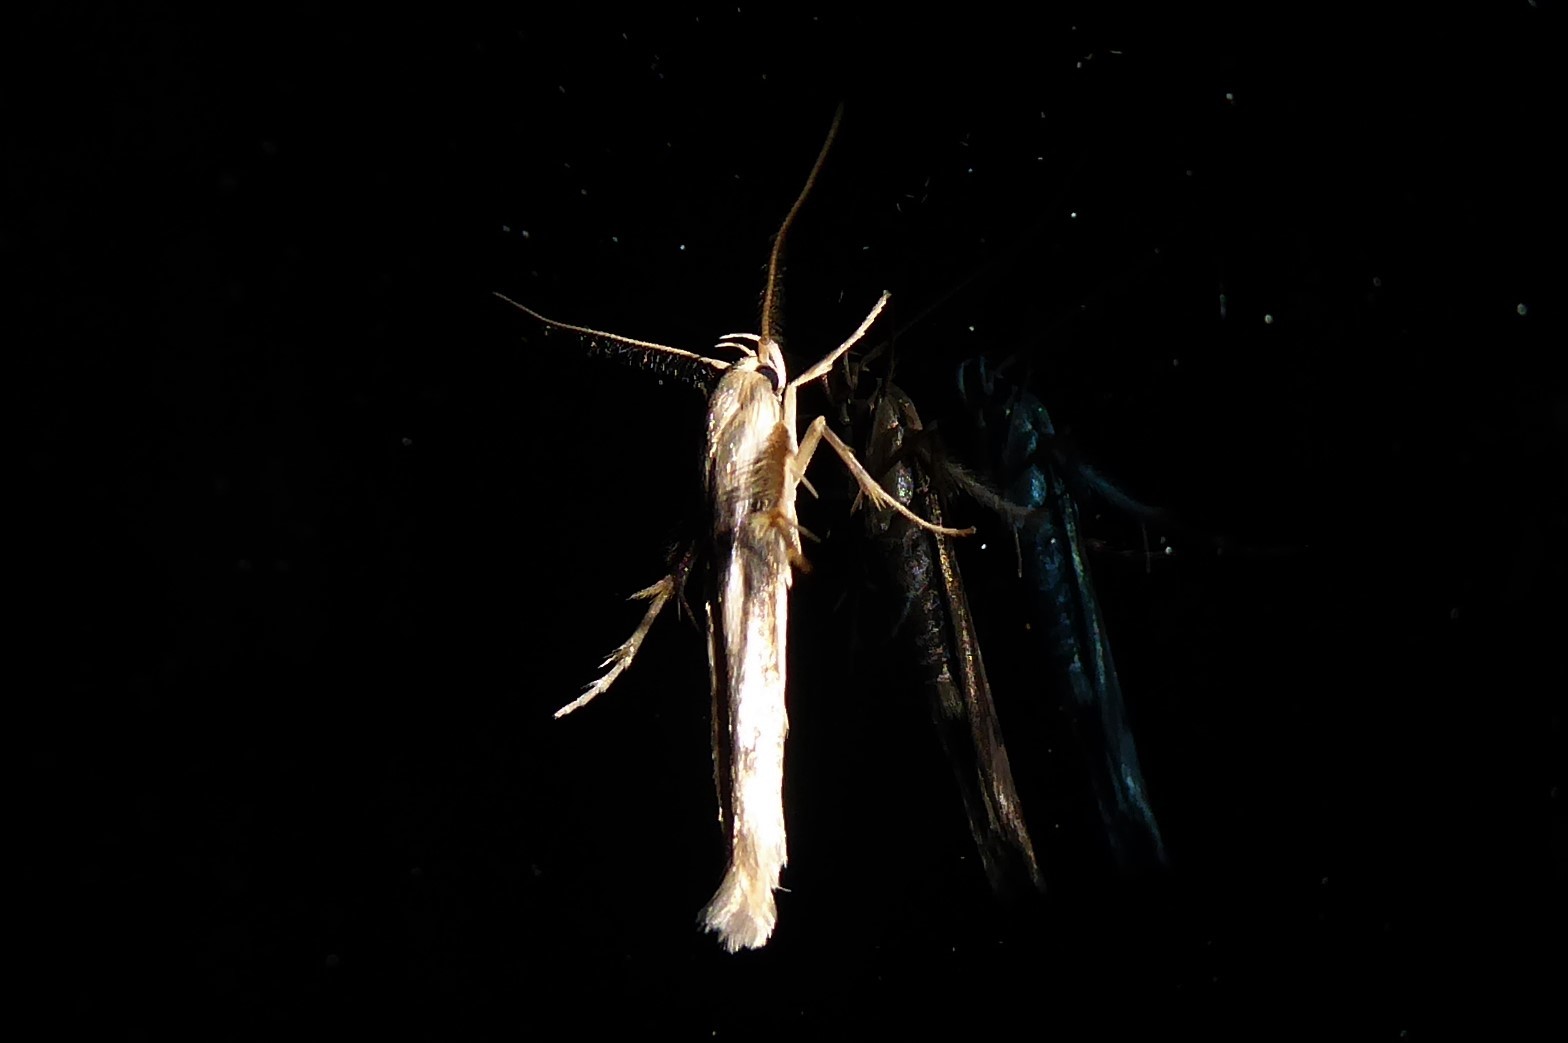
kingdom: Animalia
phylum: Arthropoda
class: Insecta
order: Lepidoptera
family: Stathmopodidae
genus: Stathmopoda
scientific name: Stathmopoda aposema
